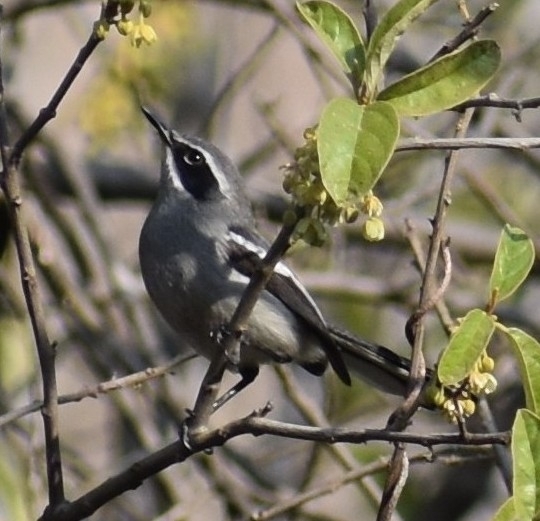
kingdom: Animalia
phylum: Chordata
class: Aves
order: Passeriformes
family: Stenostiridae
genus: Stenostira
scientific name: Stenostira scita
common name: Fairy flycatcher
